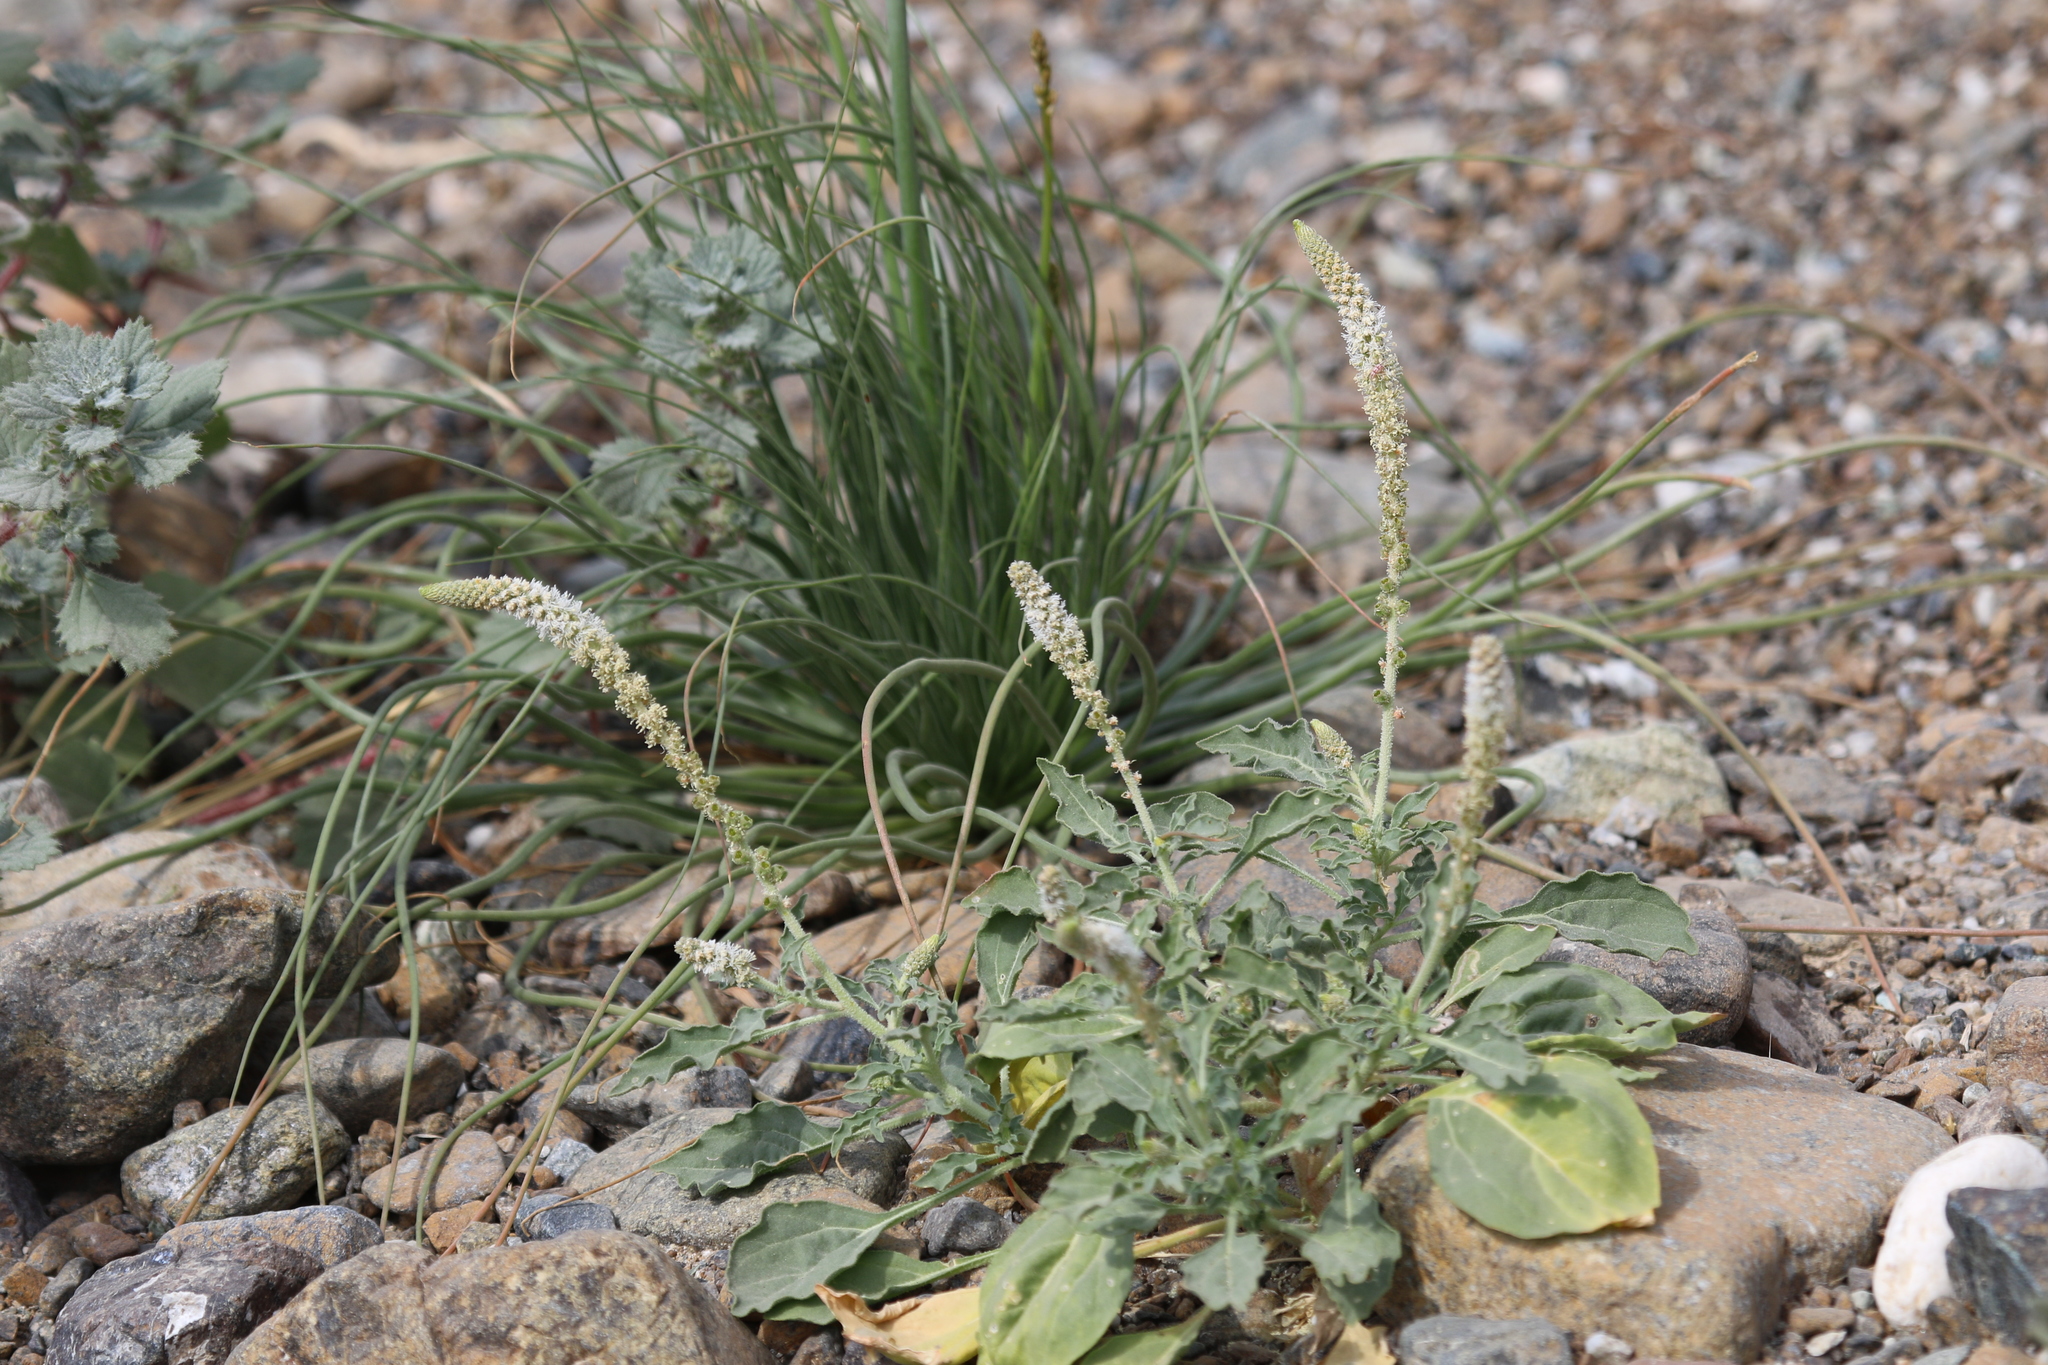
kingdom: Plantae
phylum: Tracheophyta
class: Magnoliopsida
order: Brassicales
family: Resedaceae
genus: Reseda
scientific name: Reseda aucheri
